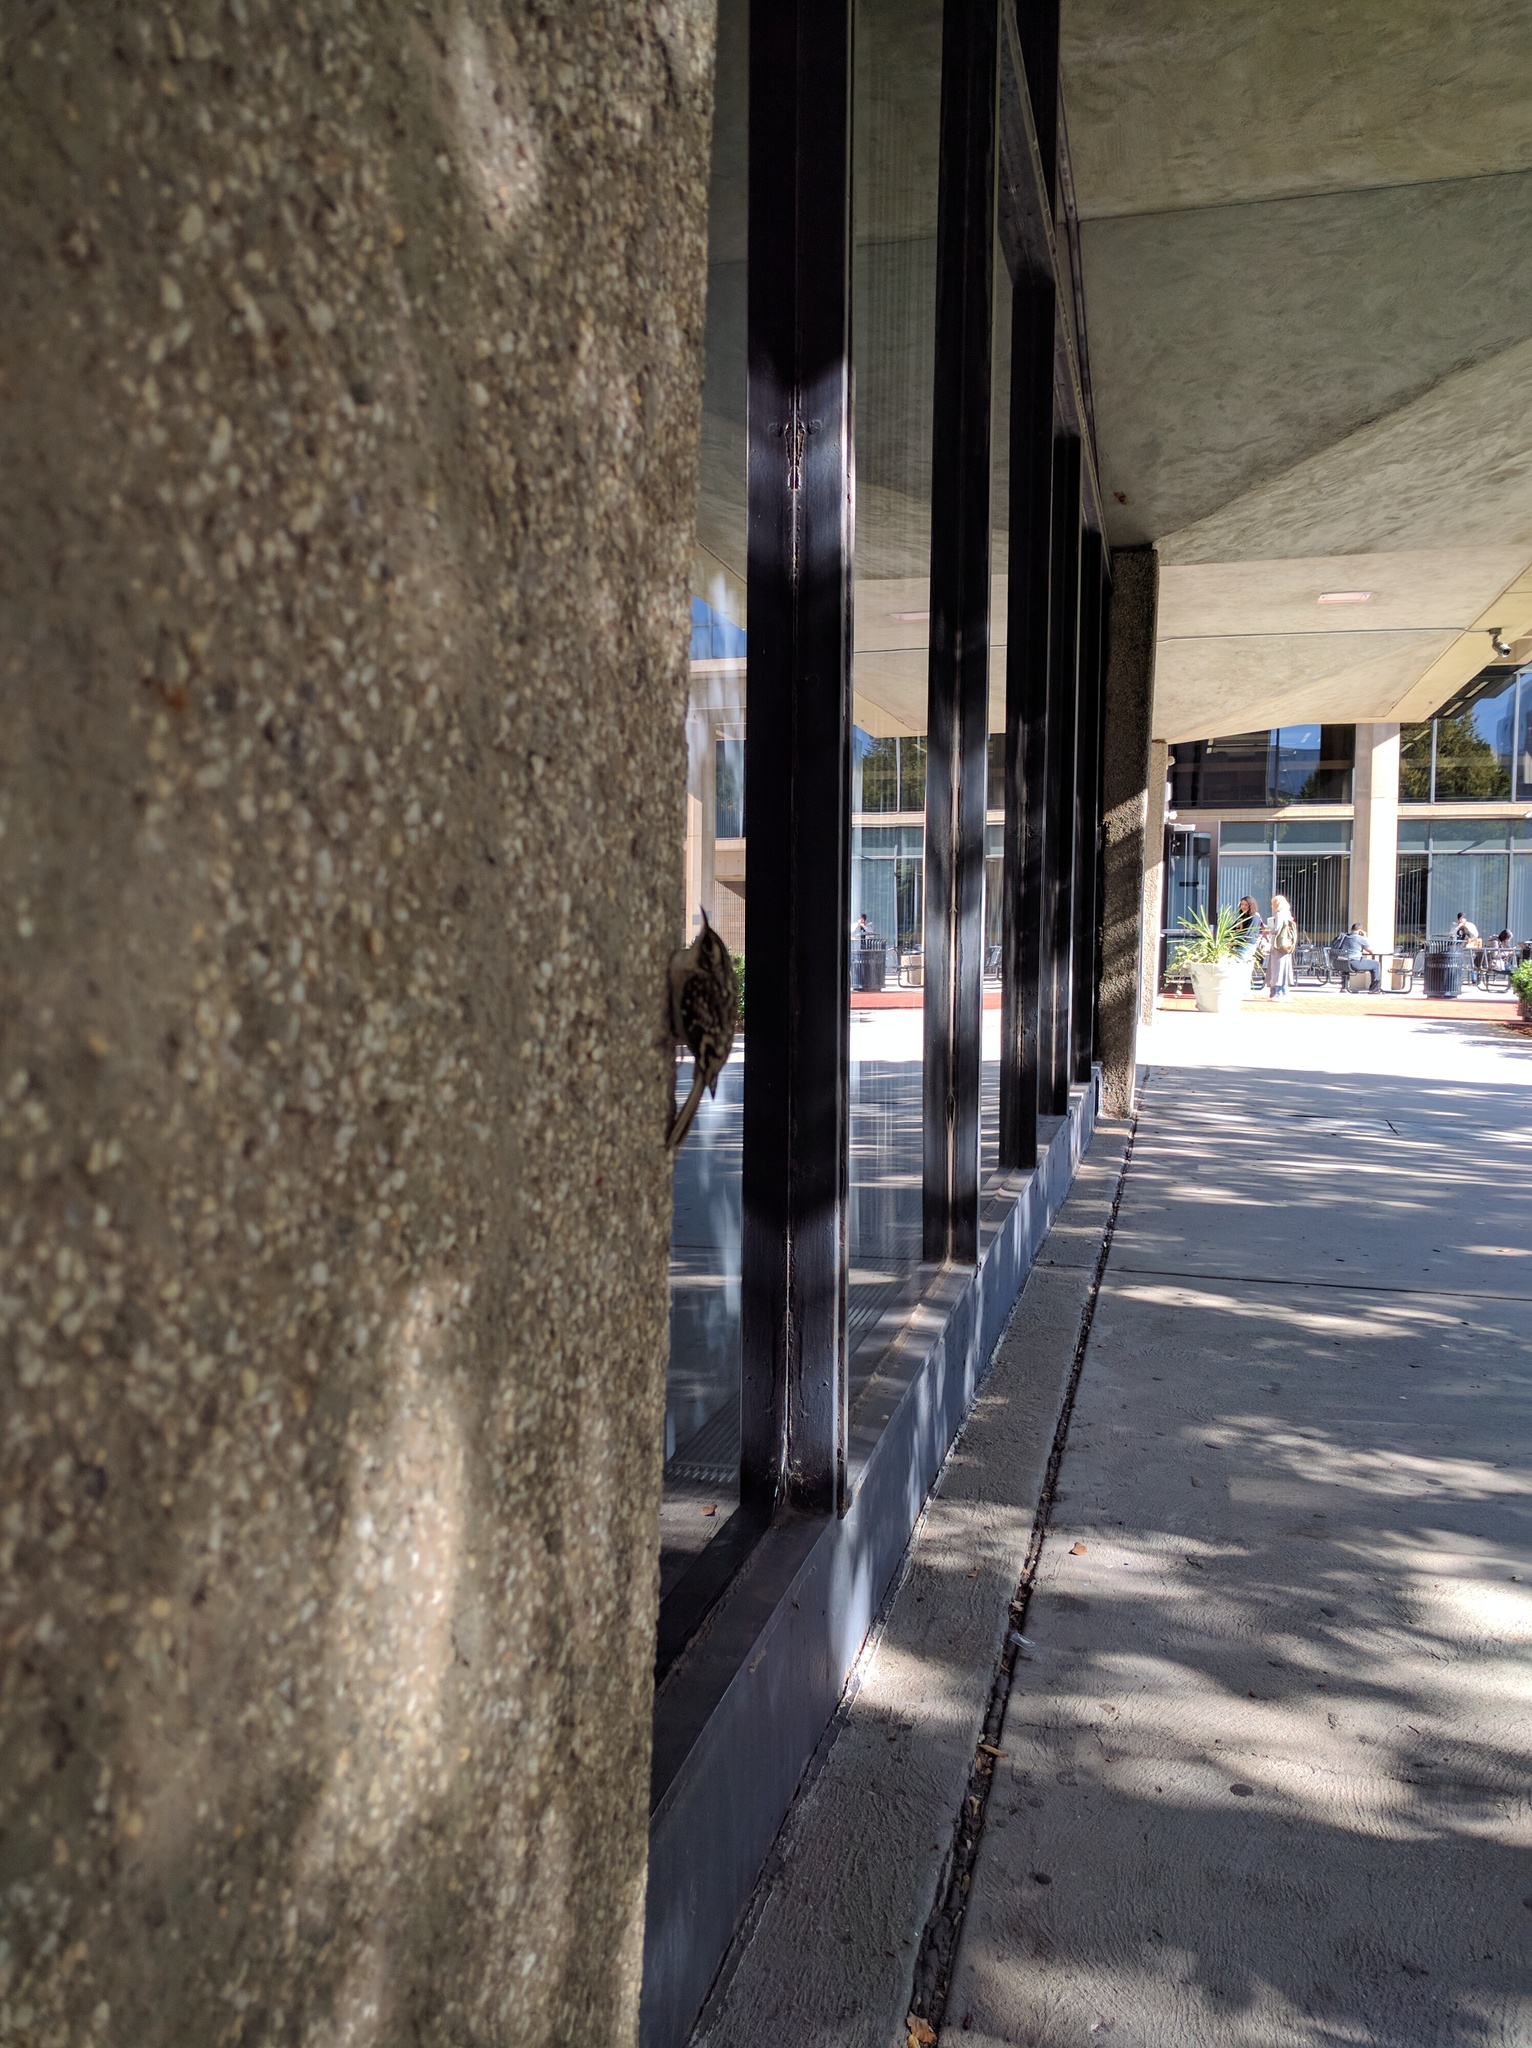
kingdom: Animalia
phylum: Chordata
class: Aves
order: Passeriformes
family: Certhiidae
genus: Certhia
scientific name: Certhia americana
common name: Brown creeper
